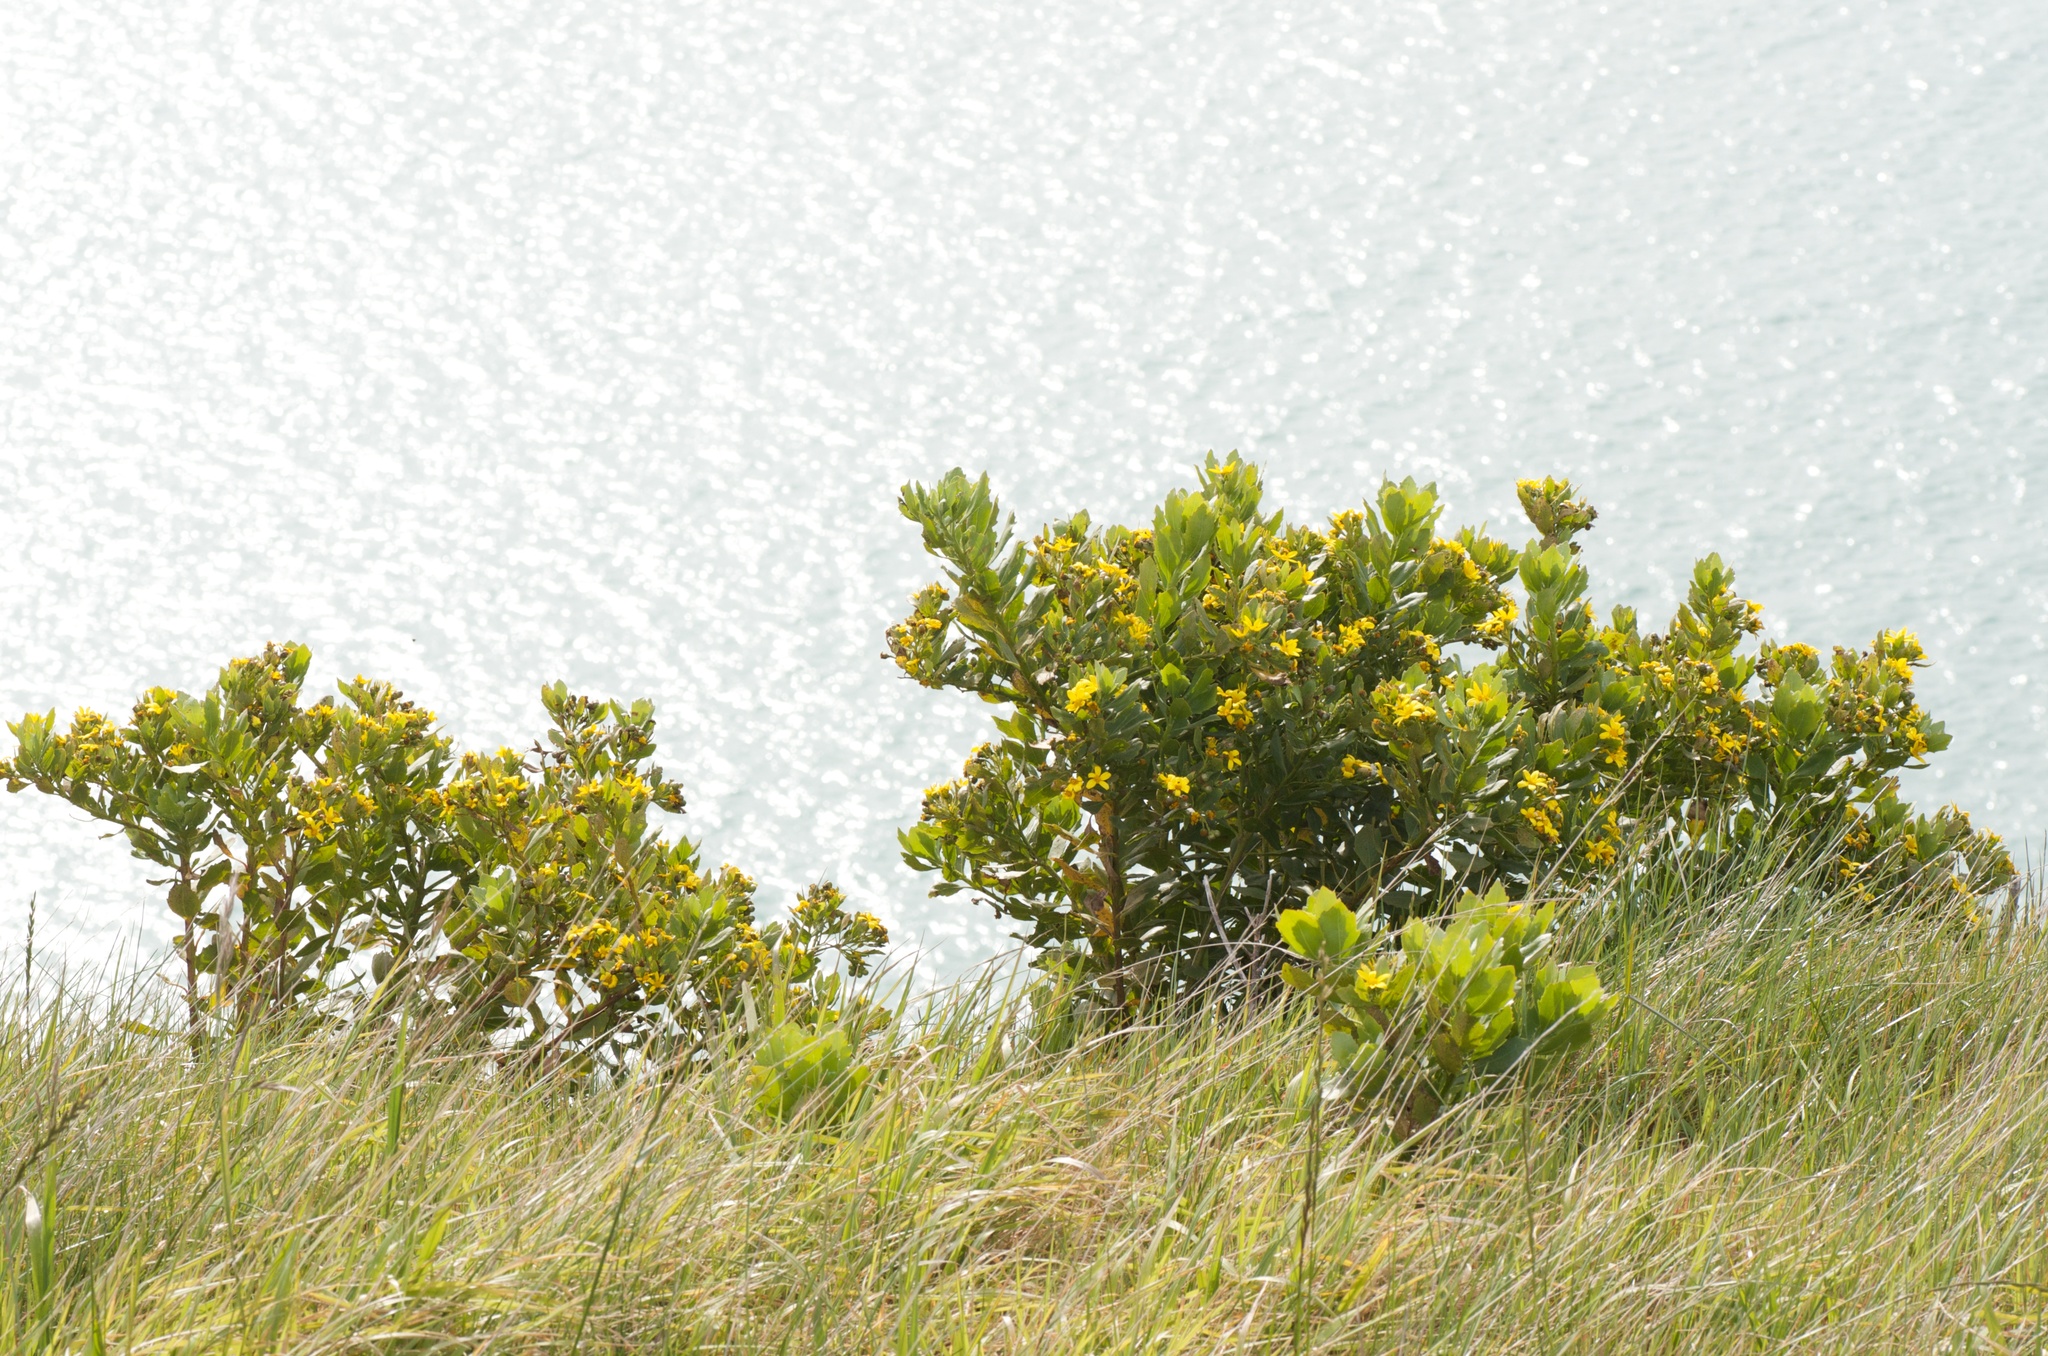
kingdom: Plantae
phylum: Tracheophyta
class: Magnoliopsida
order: Asterales
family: Asteraceae
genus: Osteospermum
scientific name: Osteospermum moniliferum
